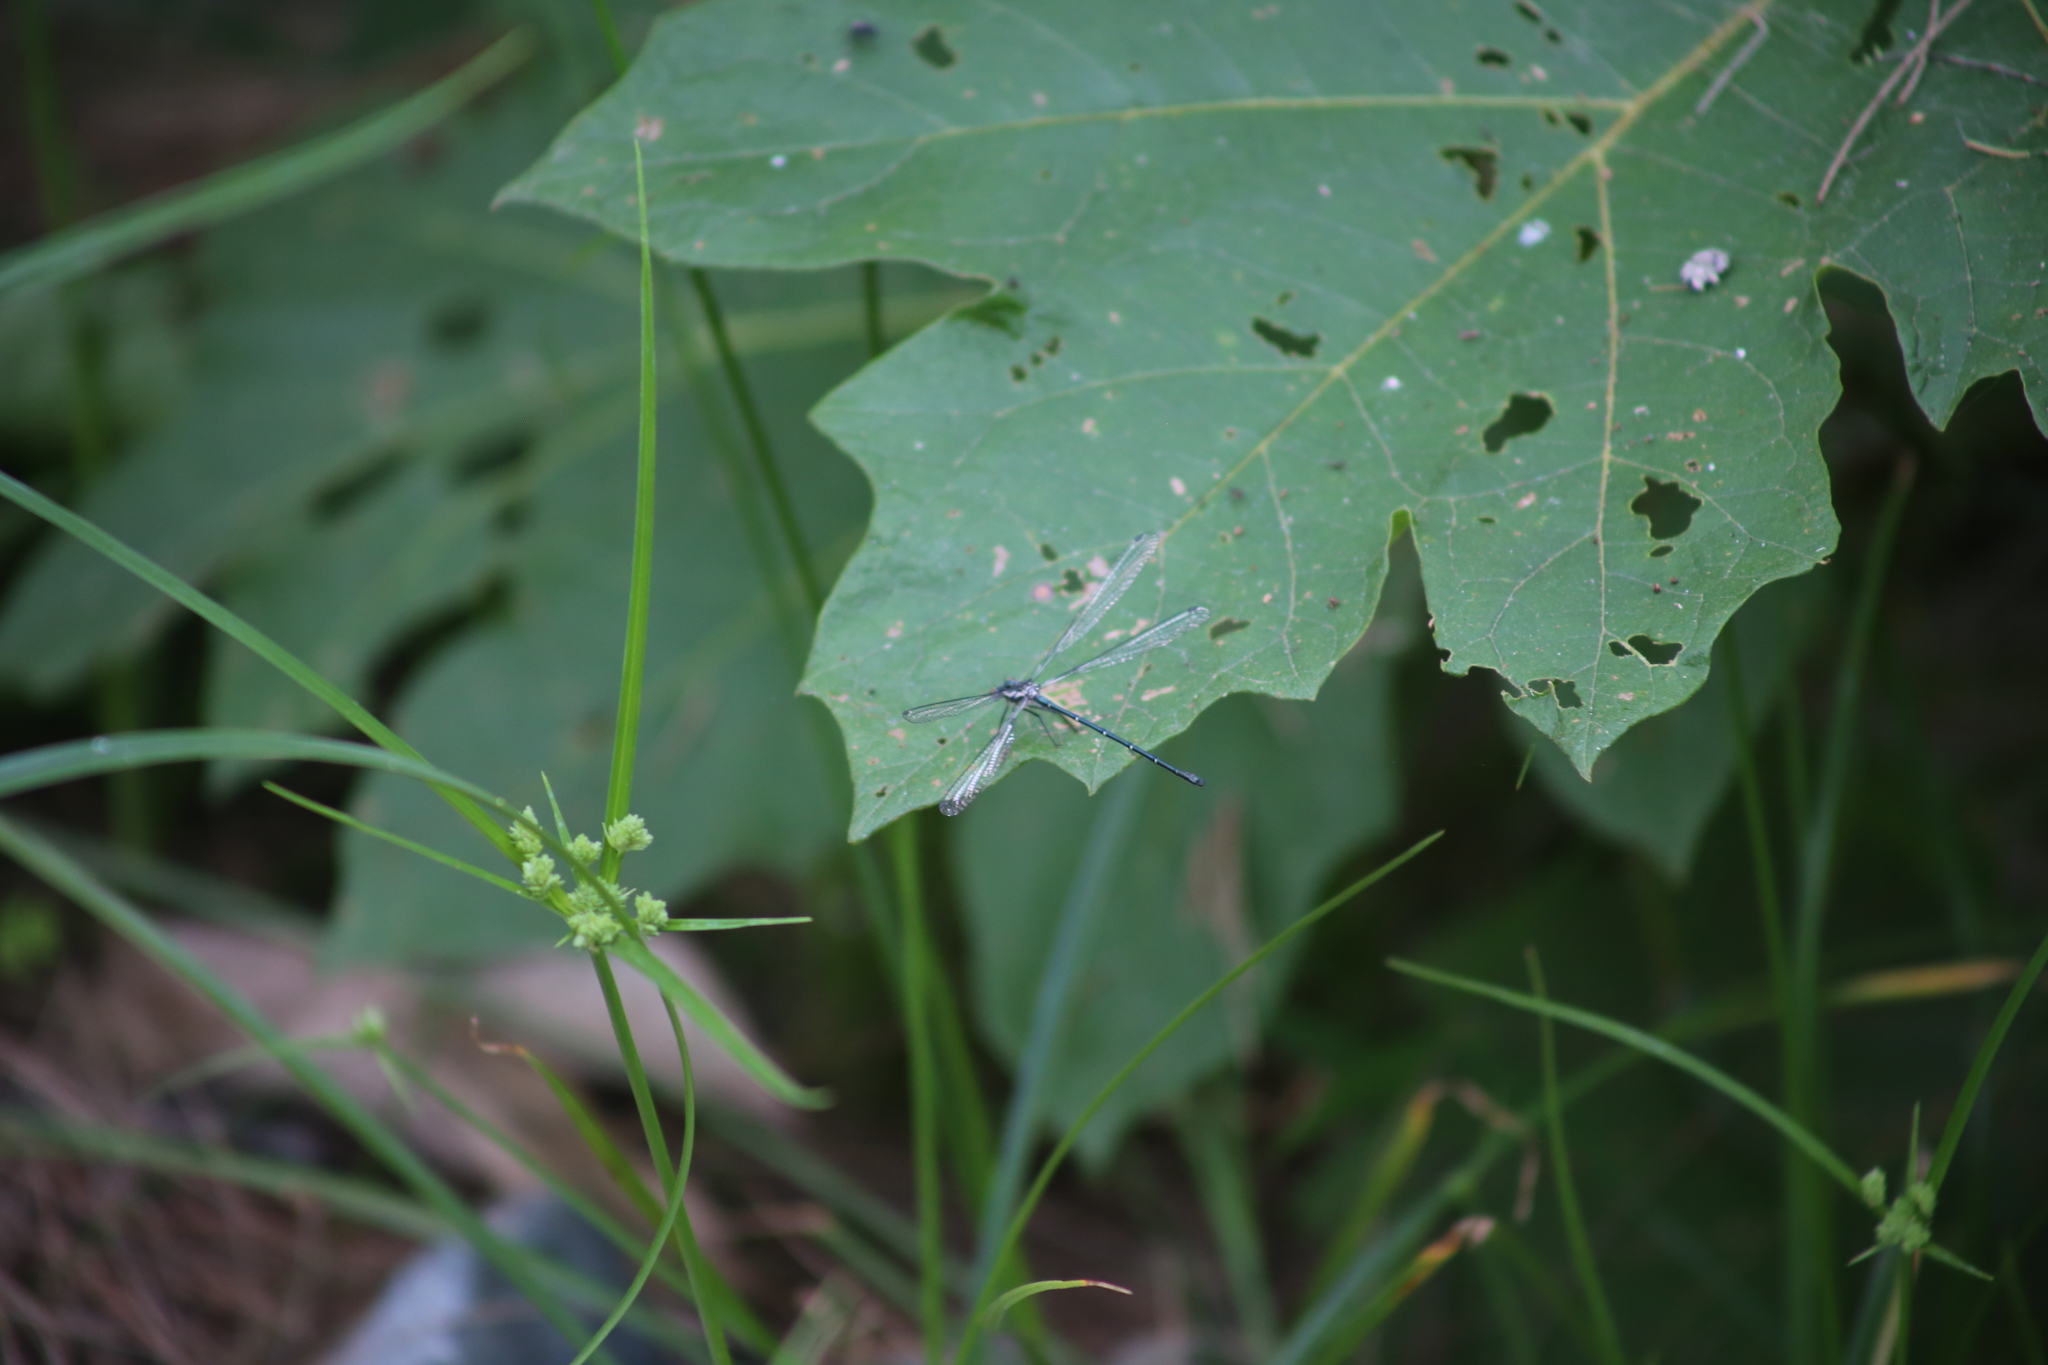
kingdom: Animalia
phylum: Arthropoda
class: Insecta
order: Odonata
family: Argiolestidae
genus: Austroargiolestes
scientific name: Austroargiolestes icteromelas
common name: Common flatwing
